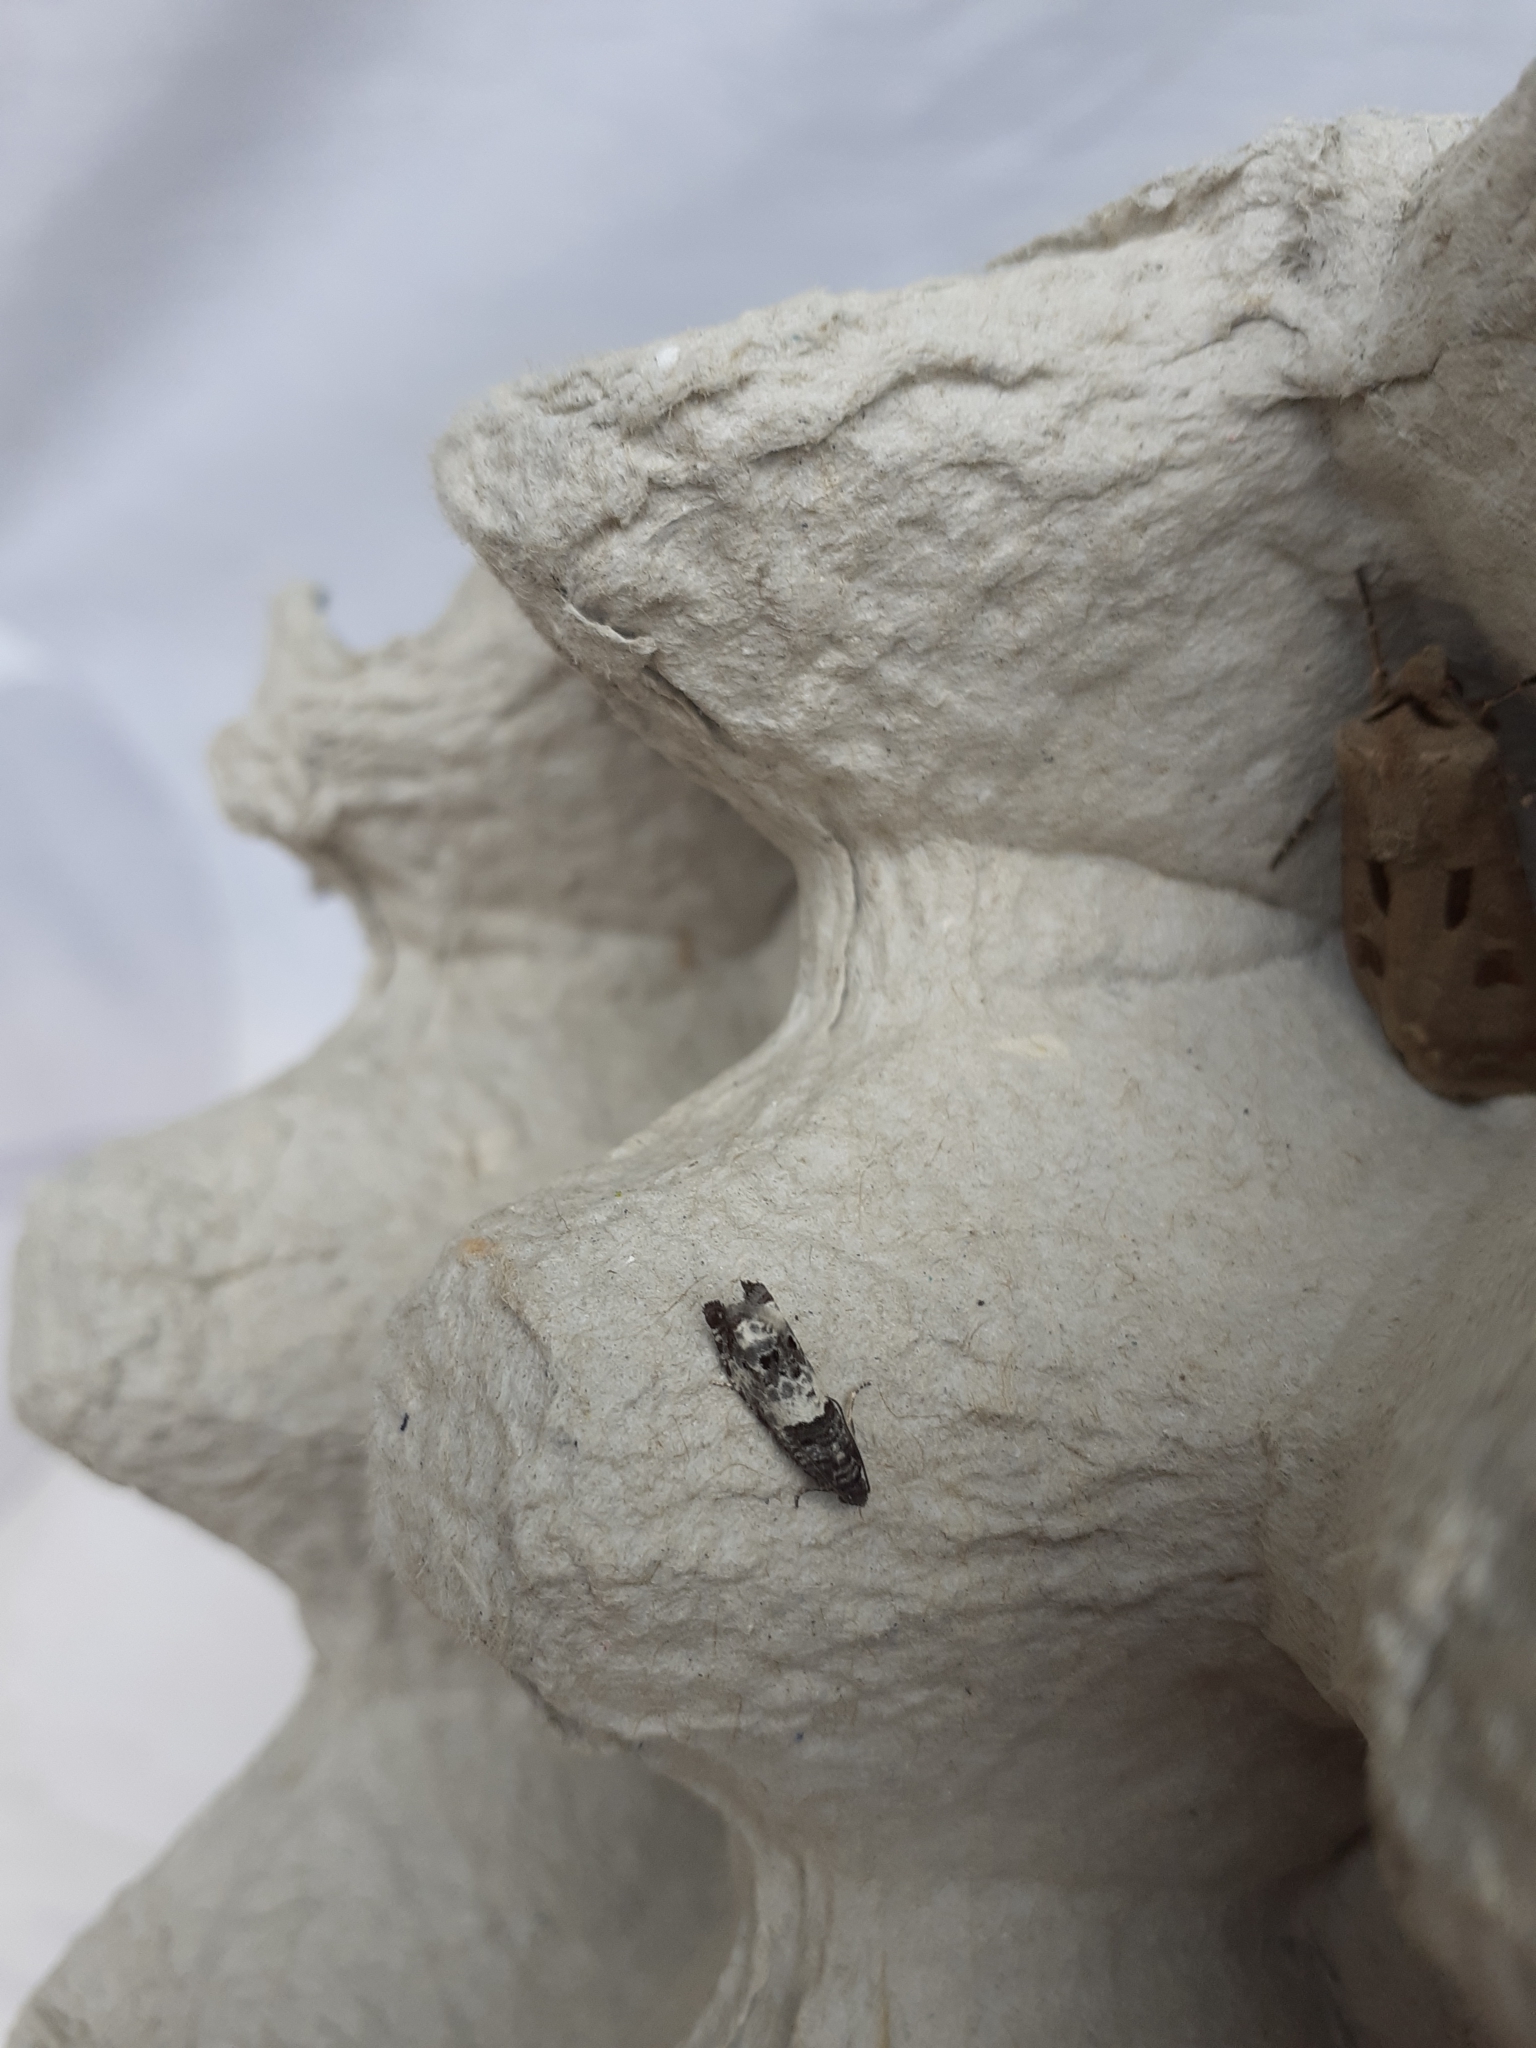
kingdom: Animalia
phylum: Arthropoda
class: Insecta
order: Lepidoptera
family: Tortricidae
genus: Notocelia
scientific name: Notocelia trimaculana
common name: Triple-blotched bell
